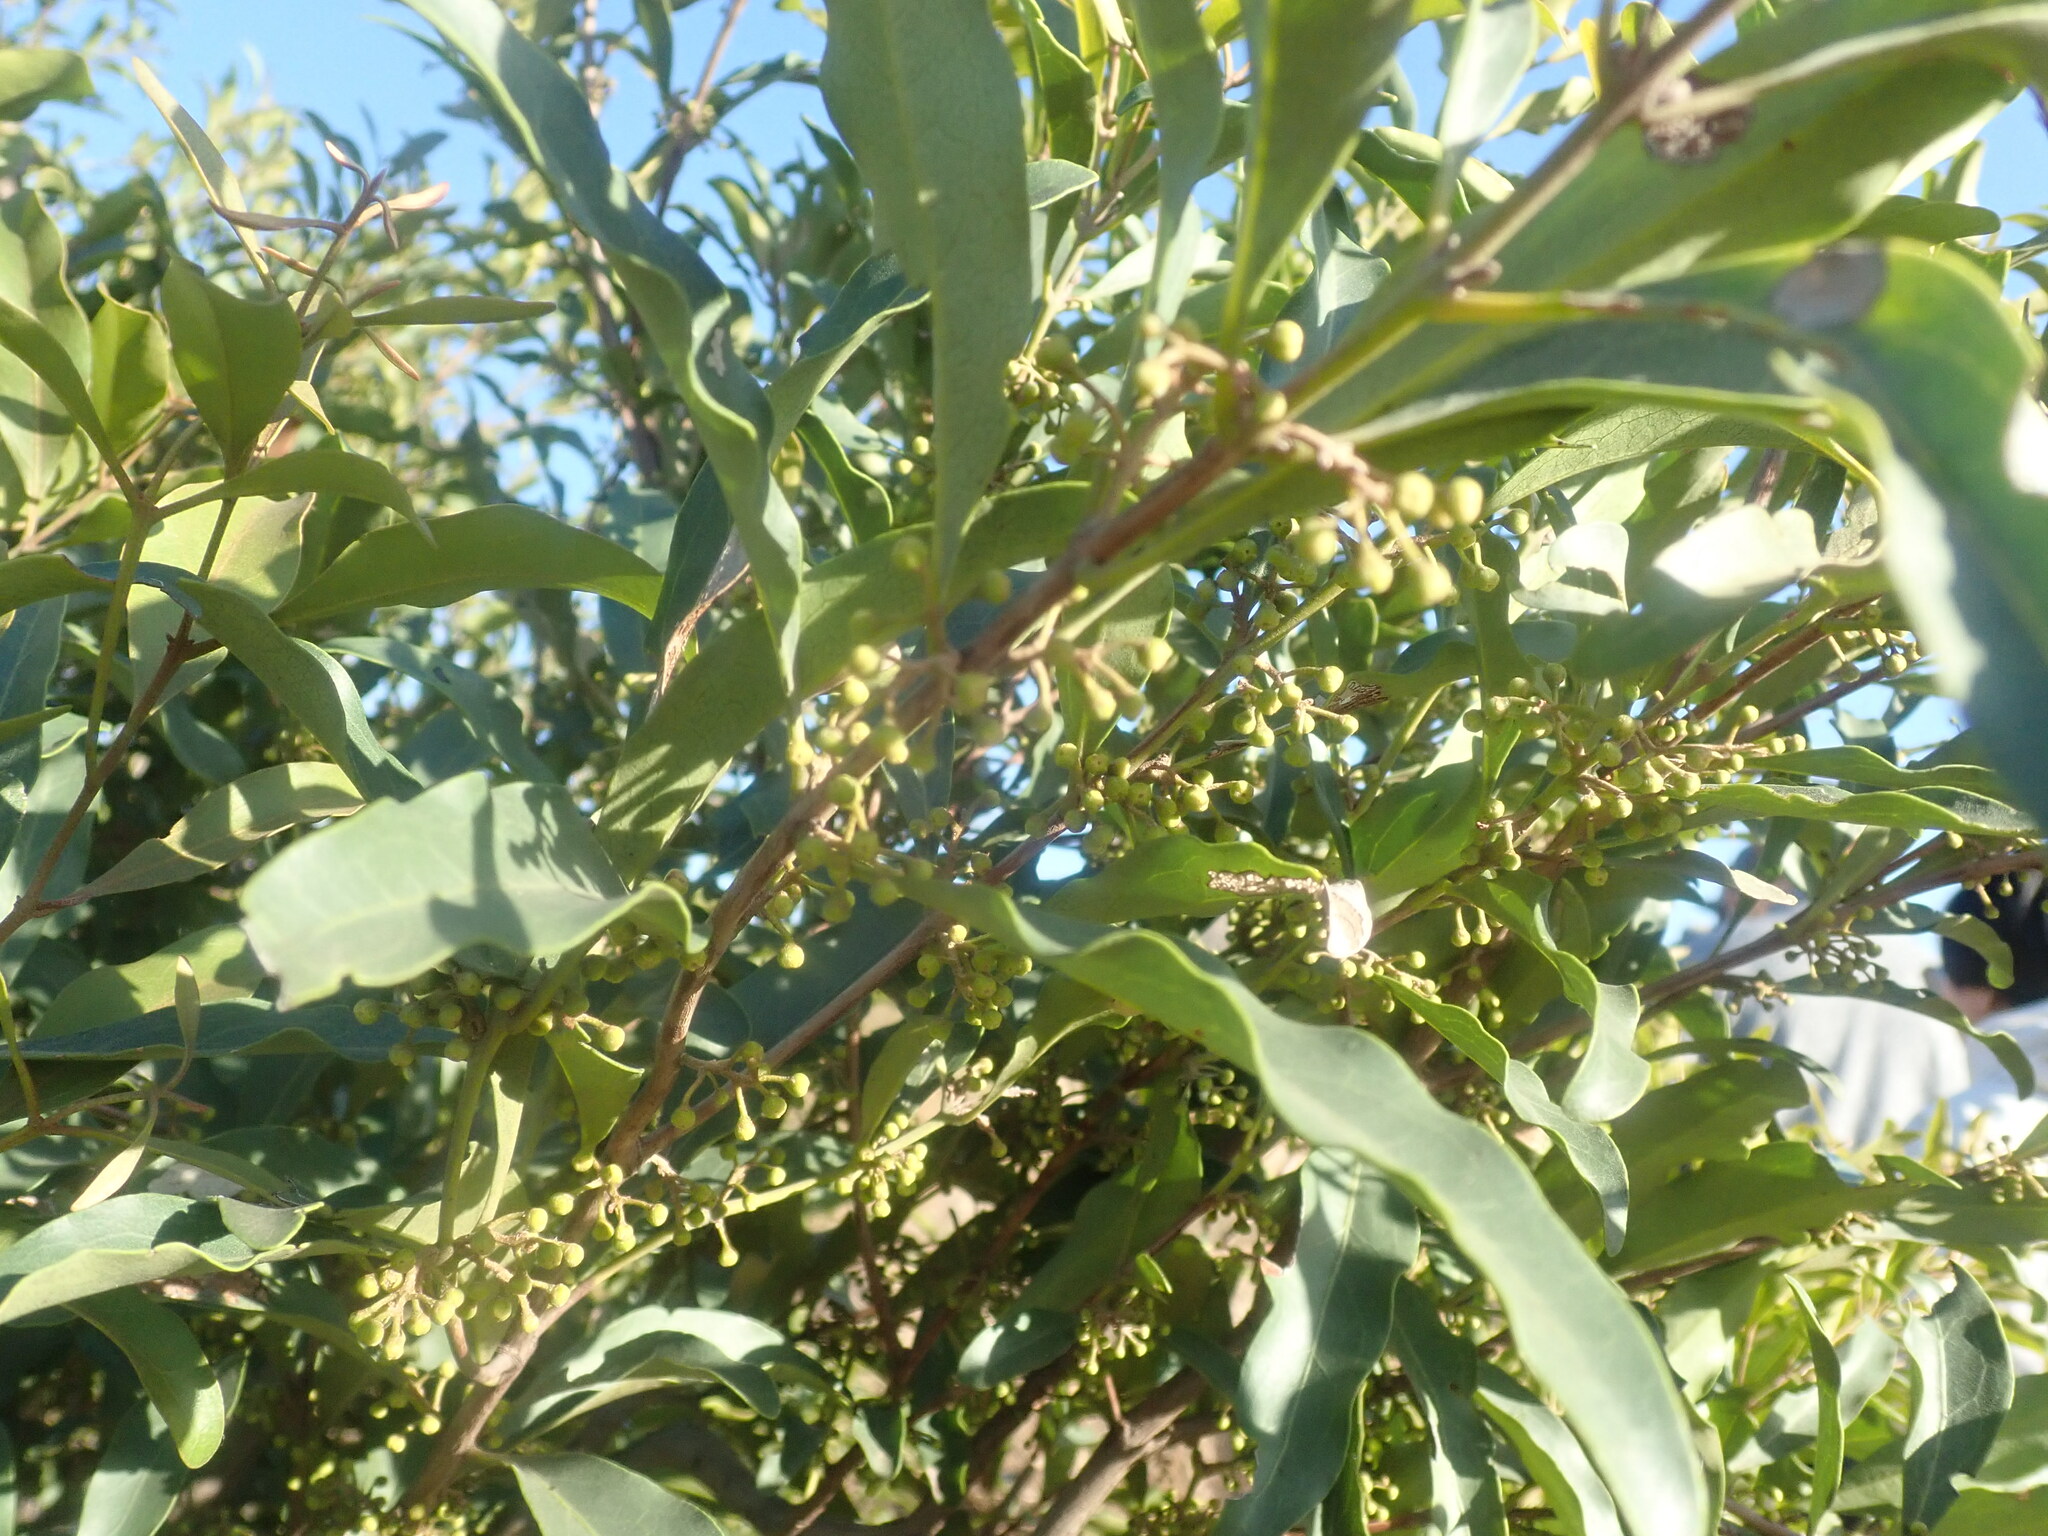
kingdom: Plantae
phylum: Tracheophyta
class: Magnoliopsida
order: Ericales
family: Ebenaceae
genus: Euclea
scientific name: Euclea divinorum
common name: Diamond-leaved euclea
